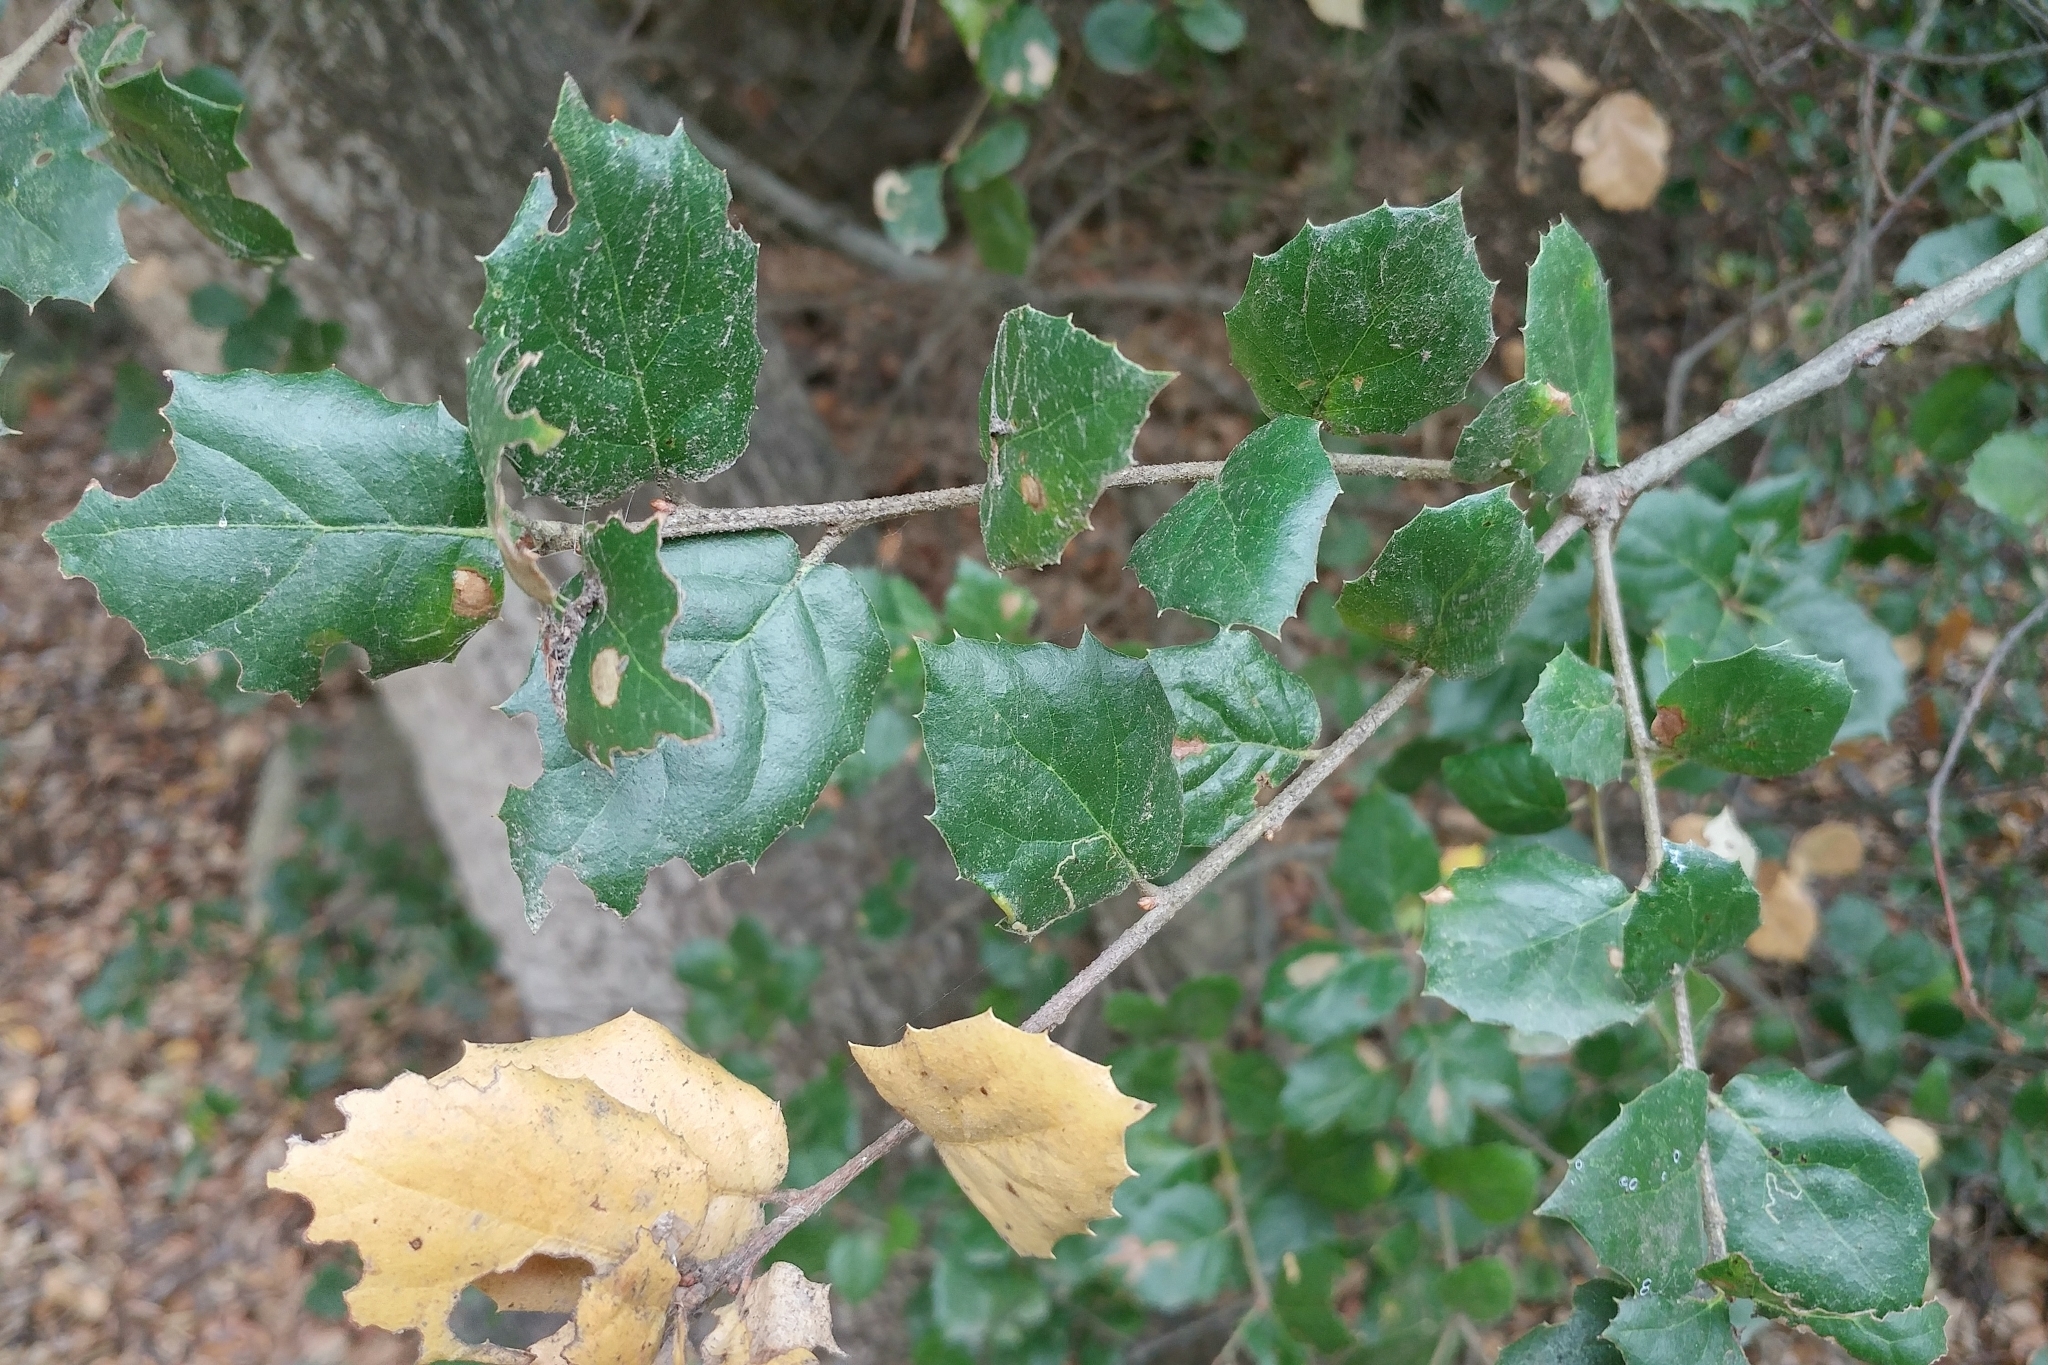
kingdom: Plantae
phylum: Tracheophyta
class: Magnoliopsida
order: Fagales
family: Fagaceae
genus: Quercus
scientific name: Quercus agrifolia
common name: California live oak
